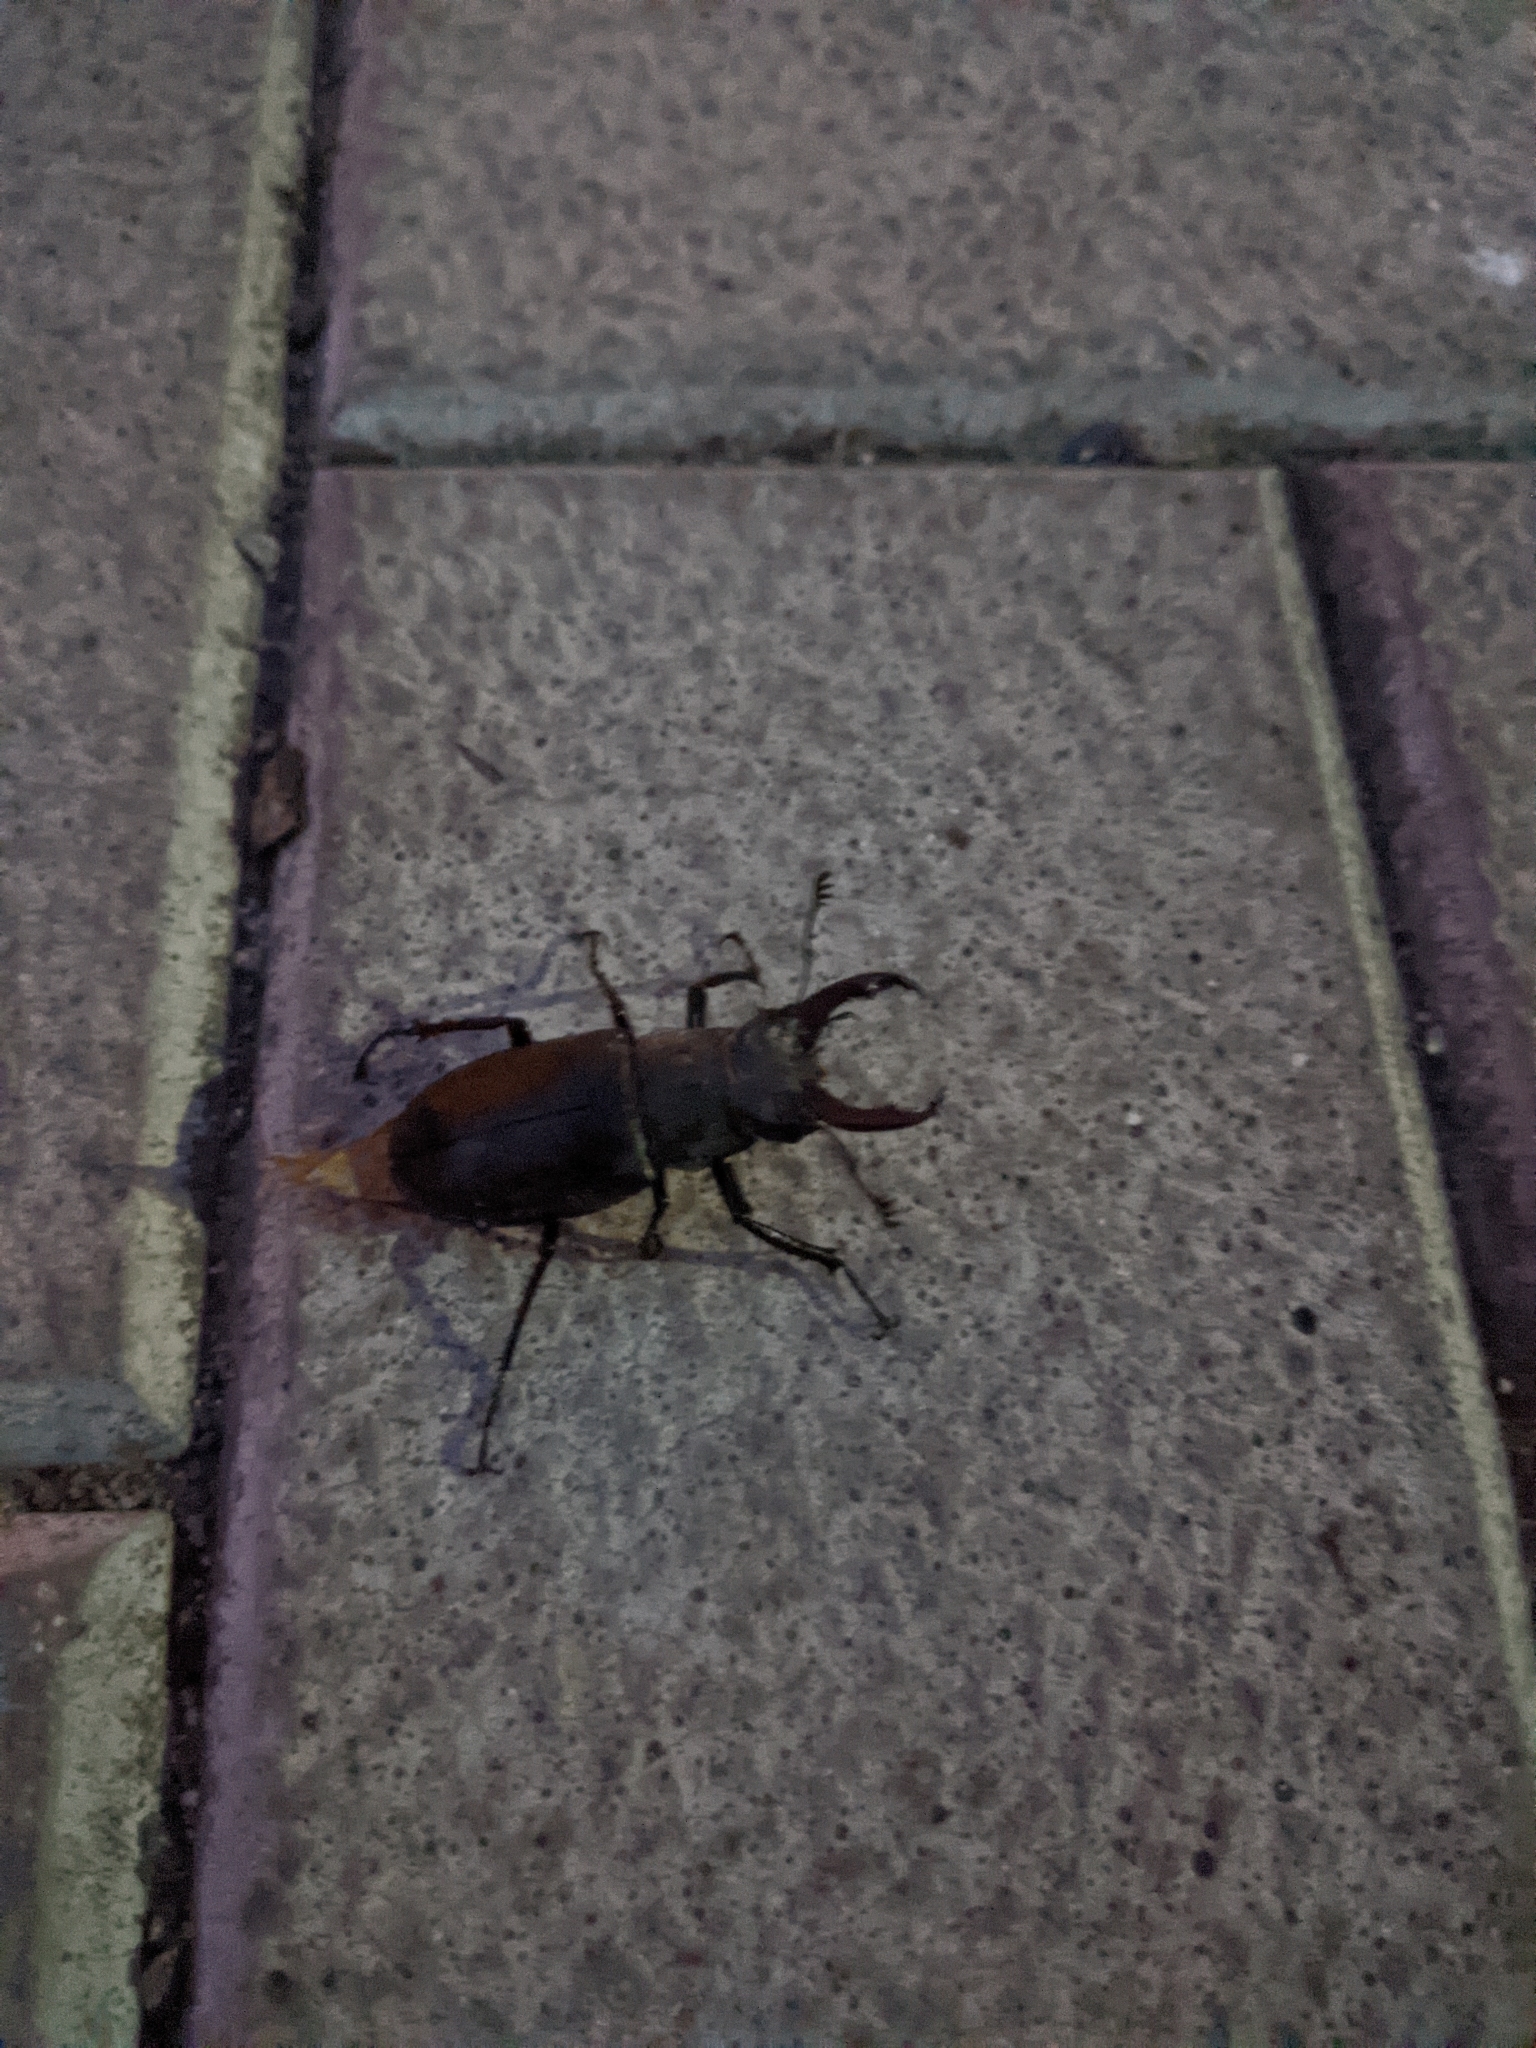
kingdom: Animalia
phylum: Arthropoda
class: Insecta
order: Coleoptera
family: Lucanidae
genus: Lucanus
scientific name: Lucanus cervus
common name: Stag beetle
